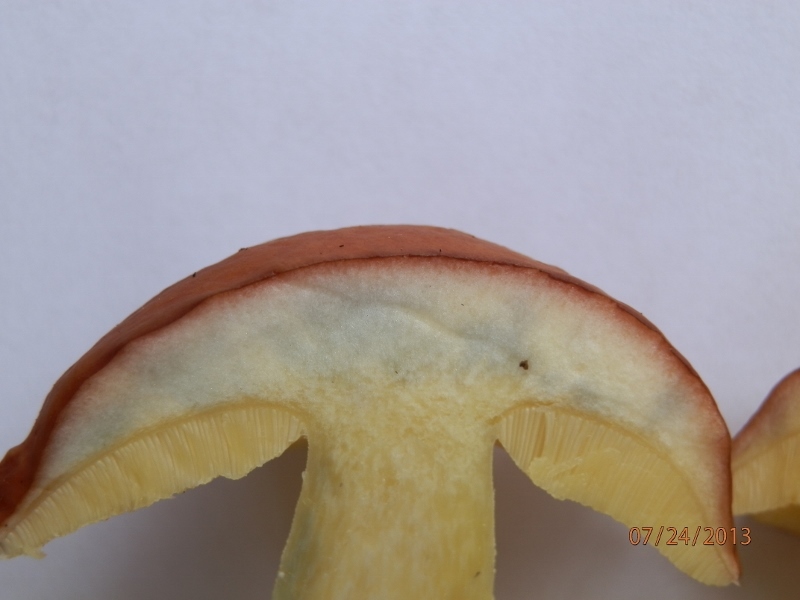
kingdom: Fungi
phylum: Basidiomycota
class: Agaricomycetes
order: Boletales
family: Boletaceae
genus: Hemileccinum
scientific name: Hemileccinum subglabripes
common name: Smoothish-stemmed bolete
